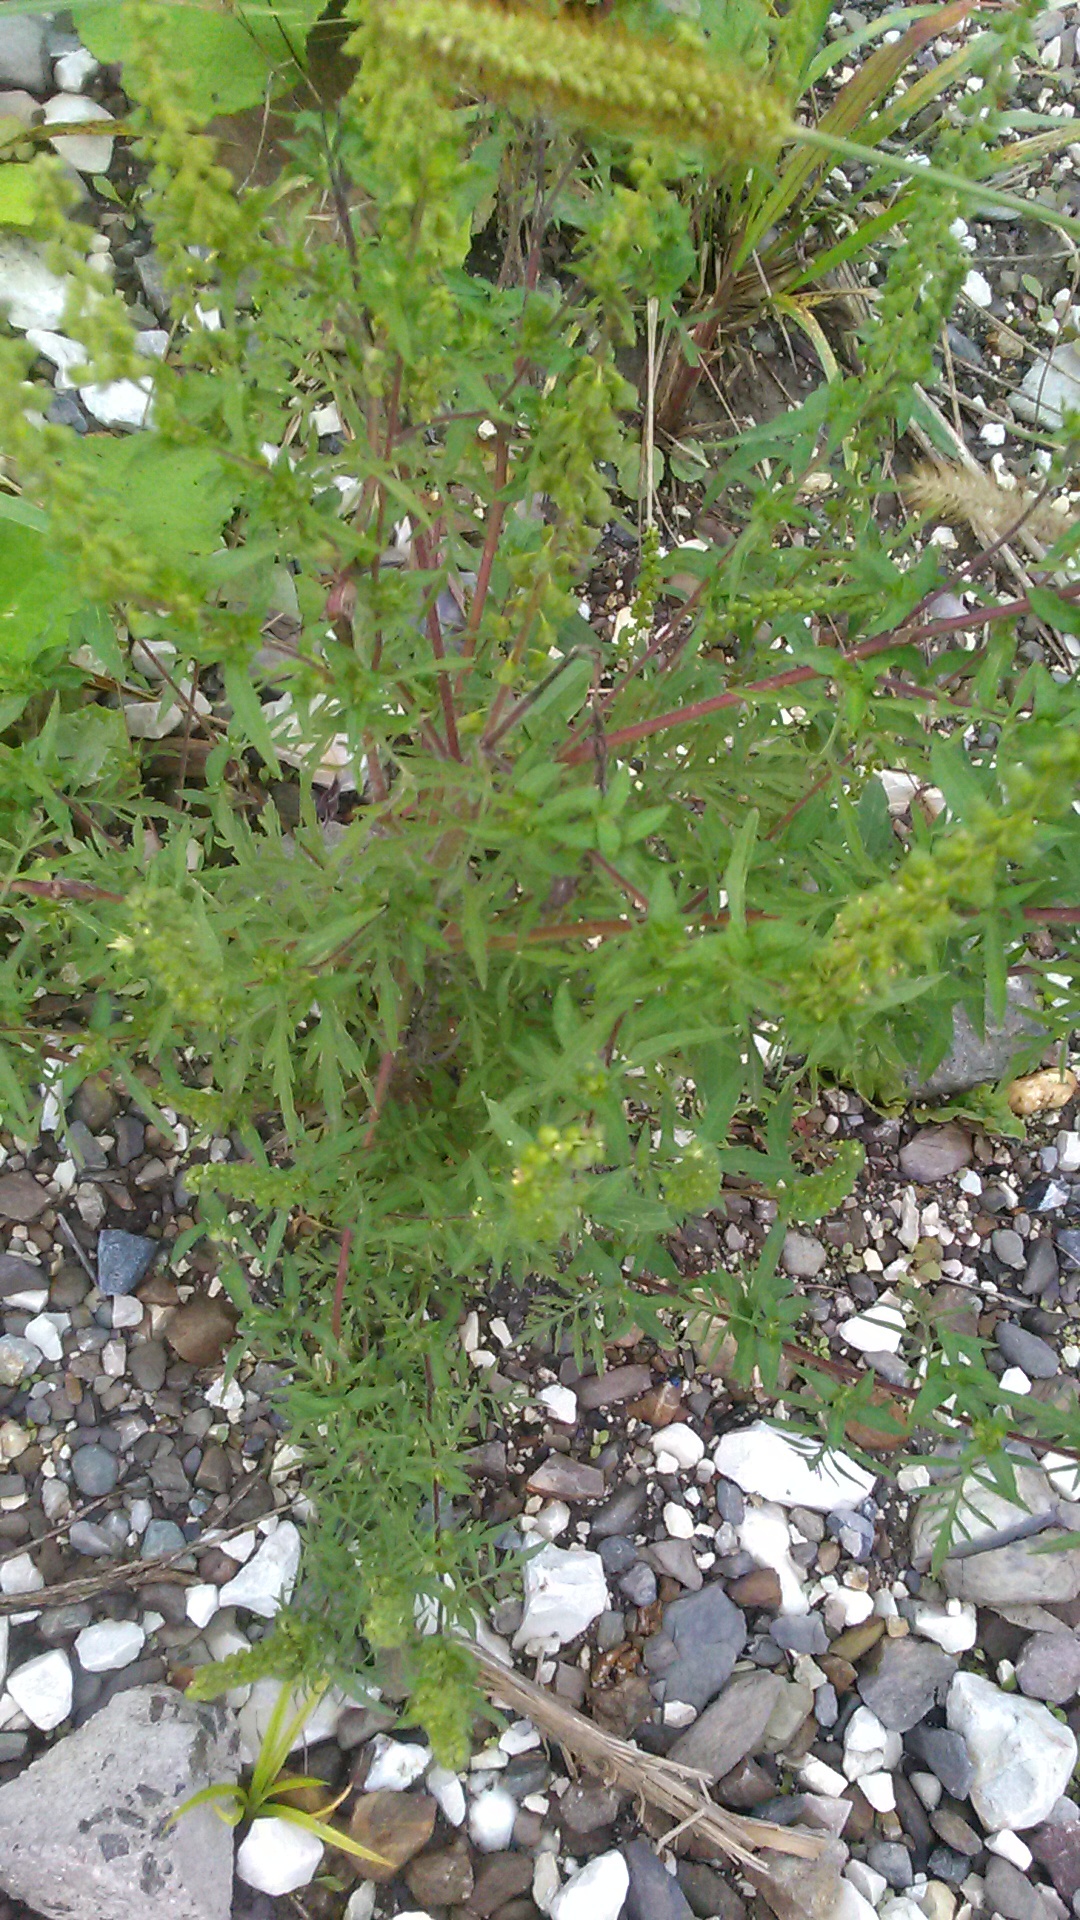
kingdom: Plantae
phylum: Tracheophyta
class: Magnoliopsida
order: Asterales
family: Asteraceae
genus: Ambrosia
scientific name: Ambrosia artemisiifolia
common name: Annual ragweed
